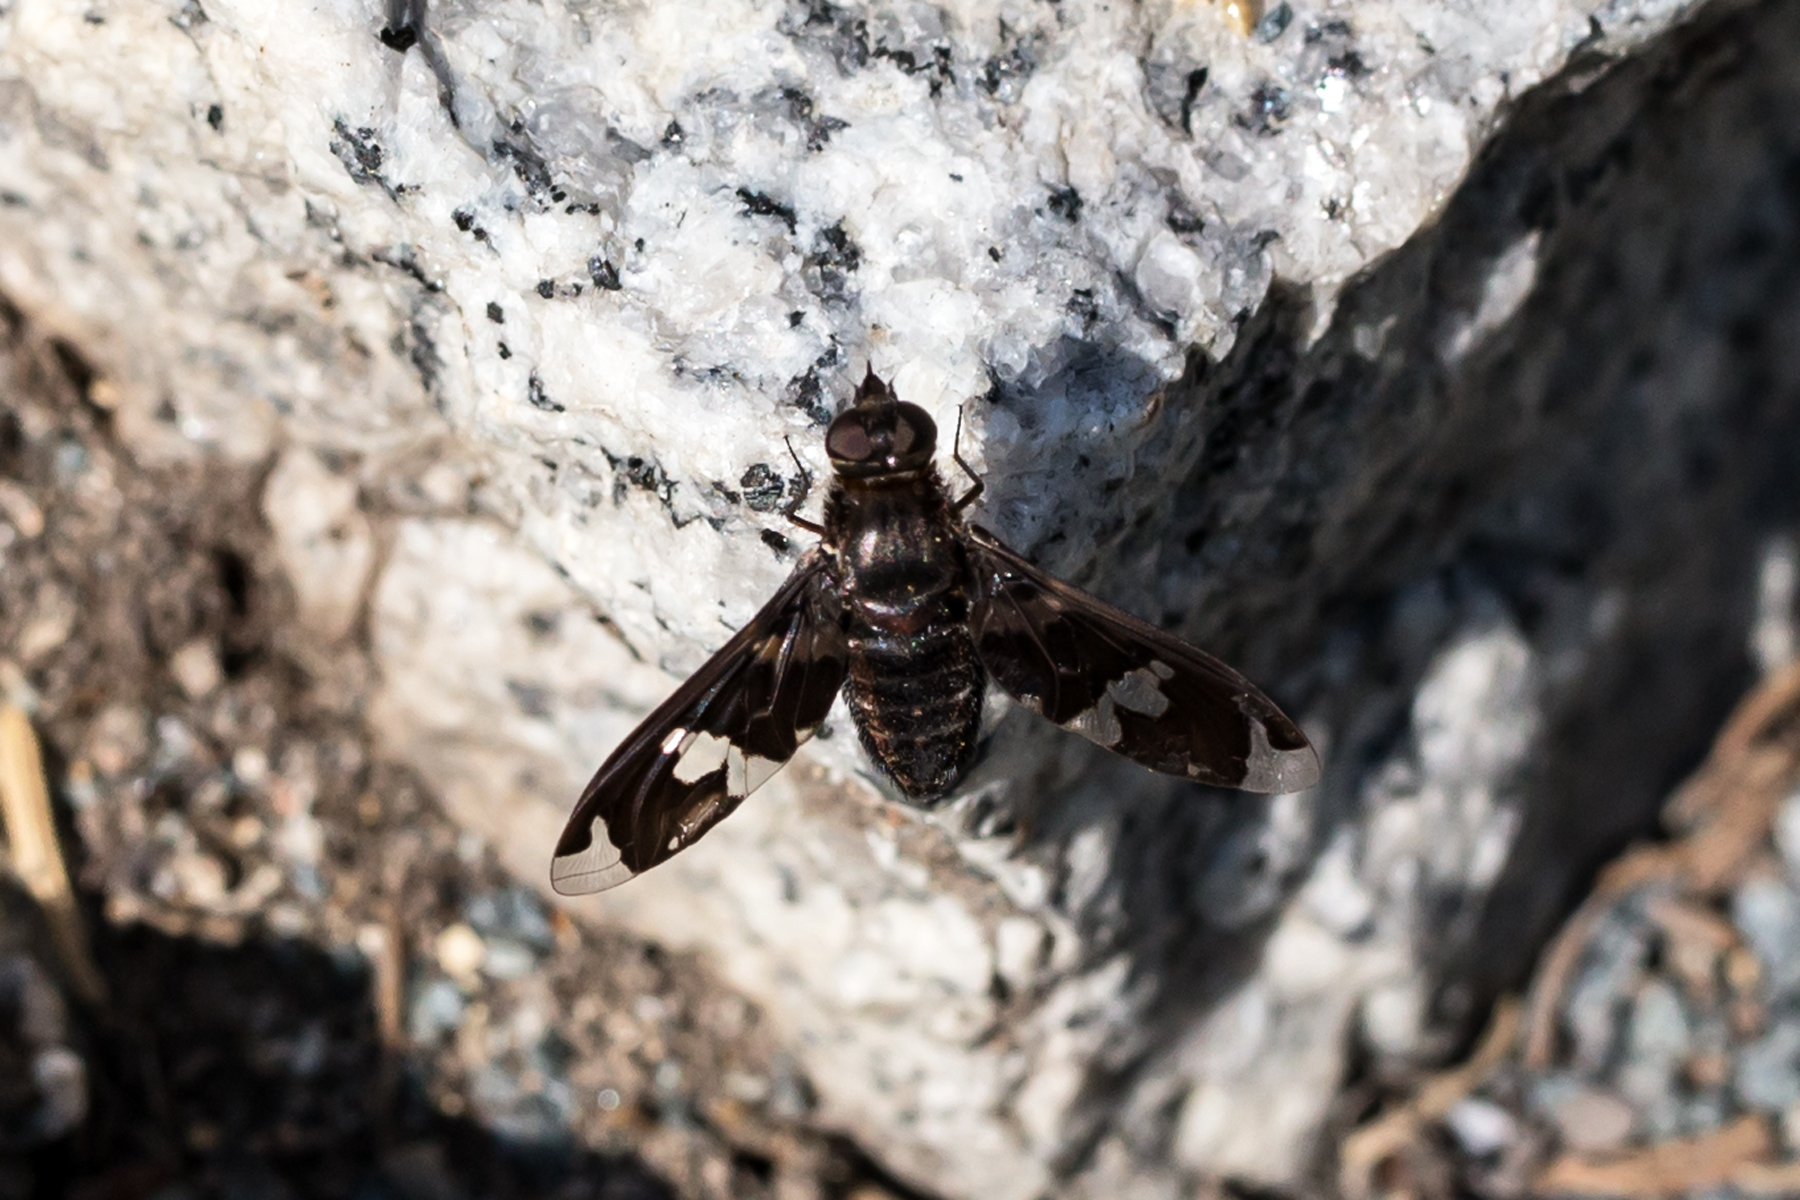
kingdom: Animalia
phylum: Arthropoda
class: Insecta
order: Diptera
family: Bombyliidae
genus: Exoprosopa
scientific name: Exoprosopa decora
